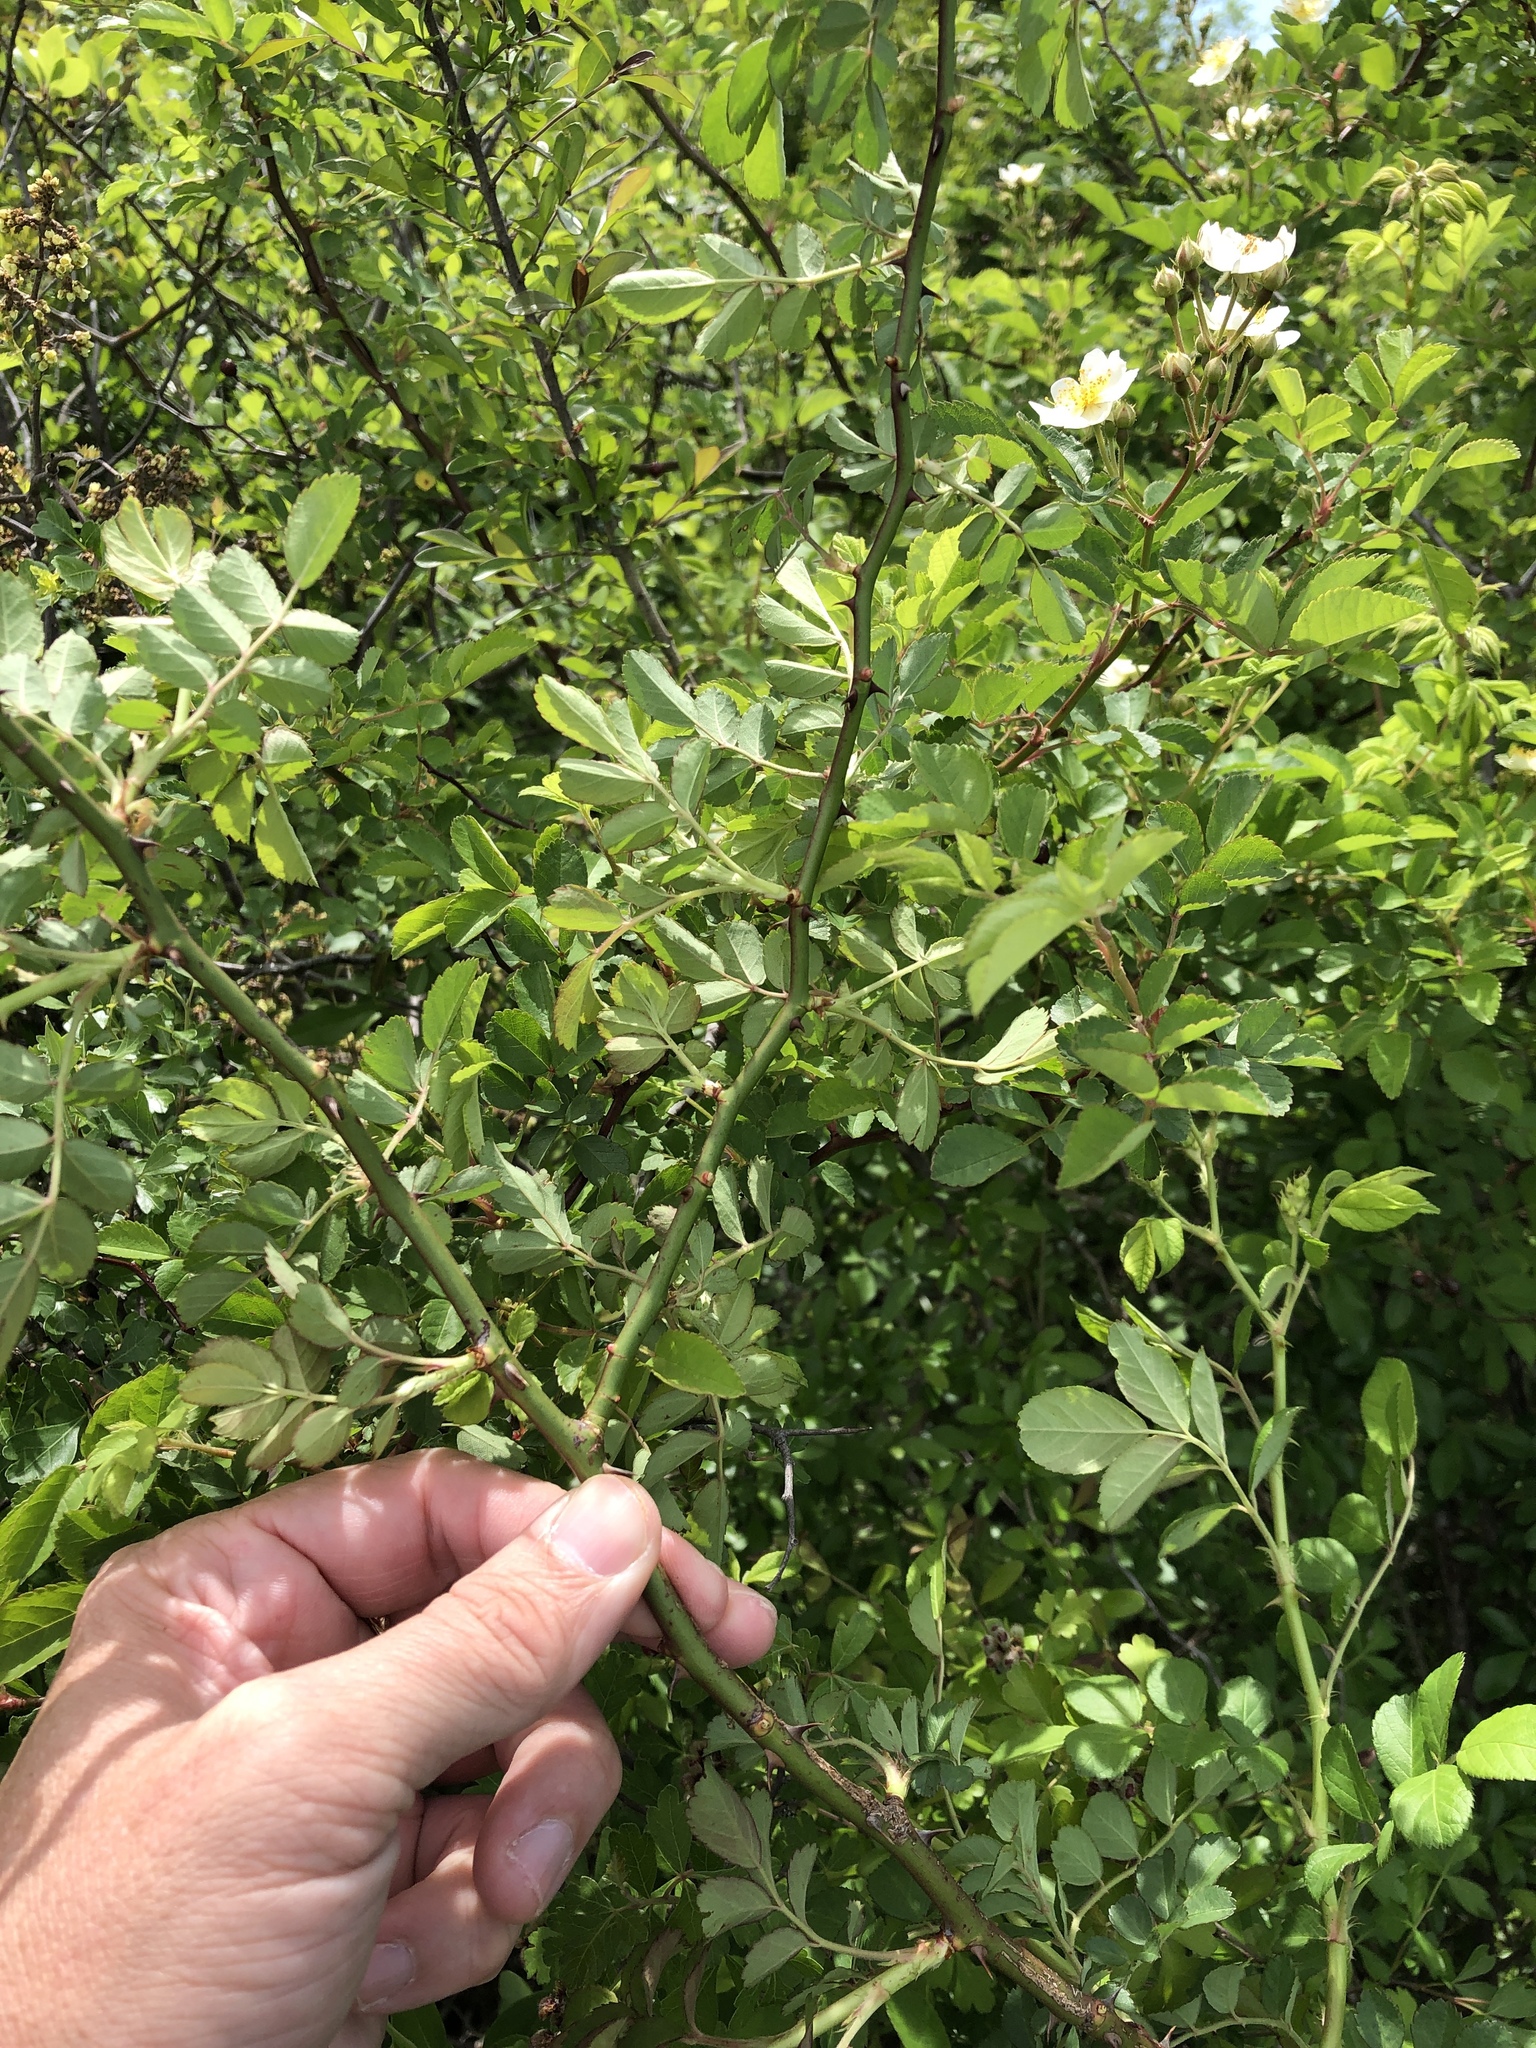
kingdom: Plantae
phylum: Tracheophyta
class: Magnoliopsida
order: Rosales
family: Rosaceae
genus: Rosa
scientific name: Rosa multiflora
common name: Multiflora rose
